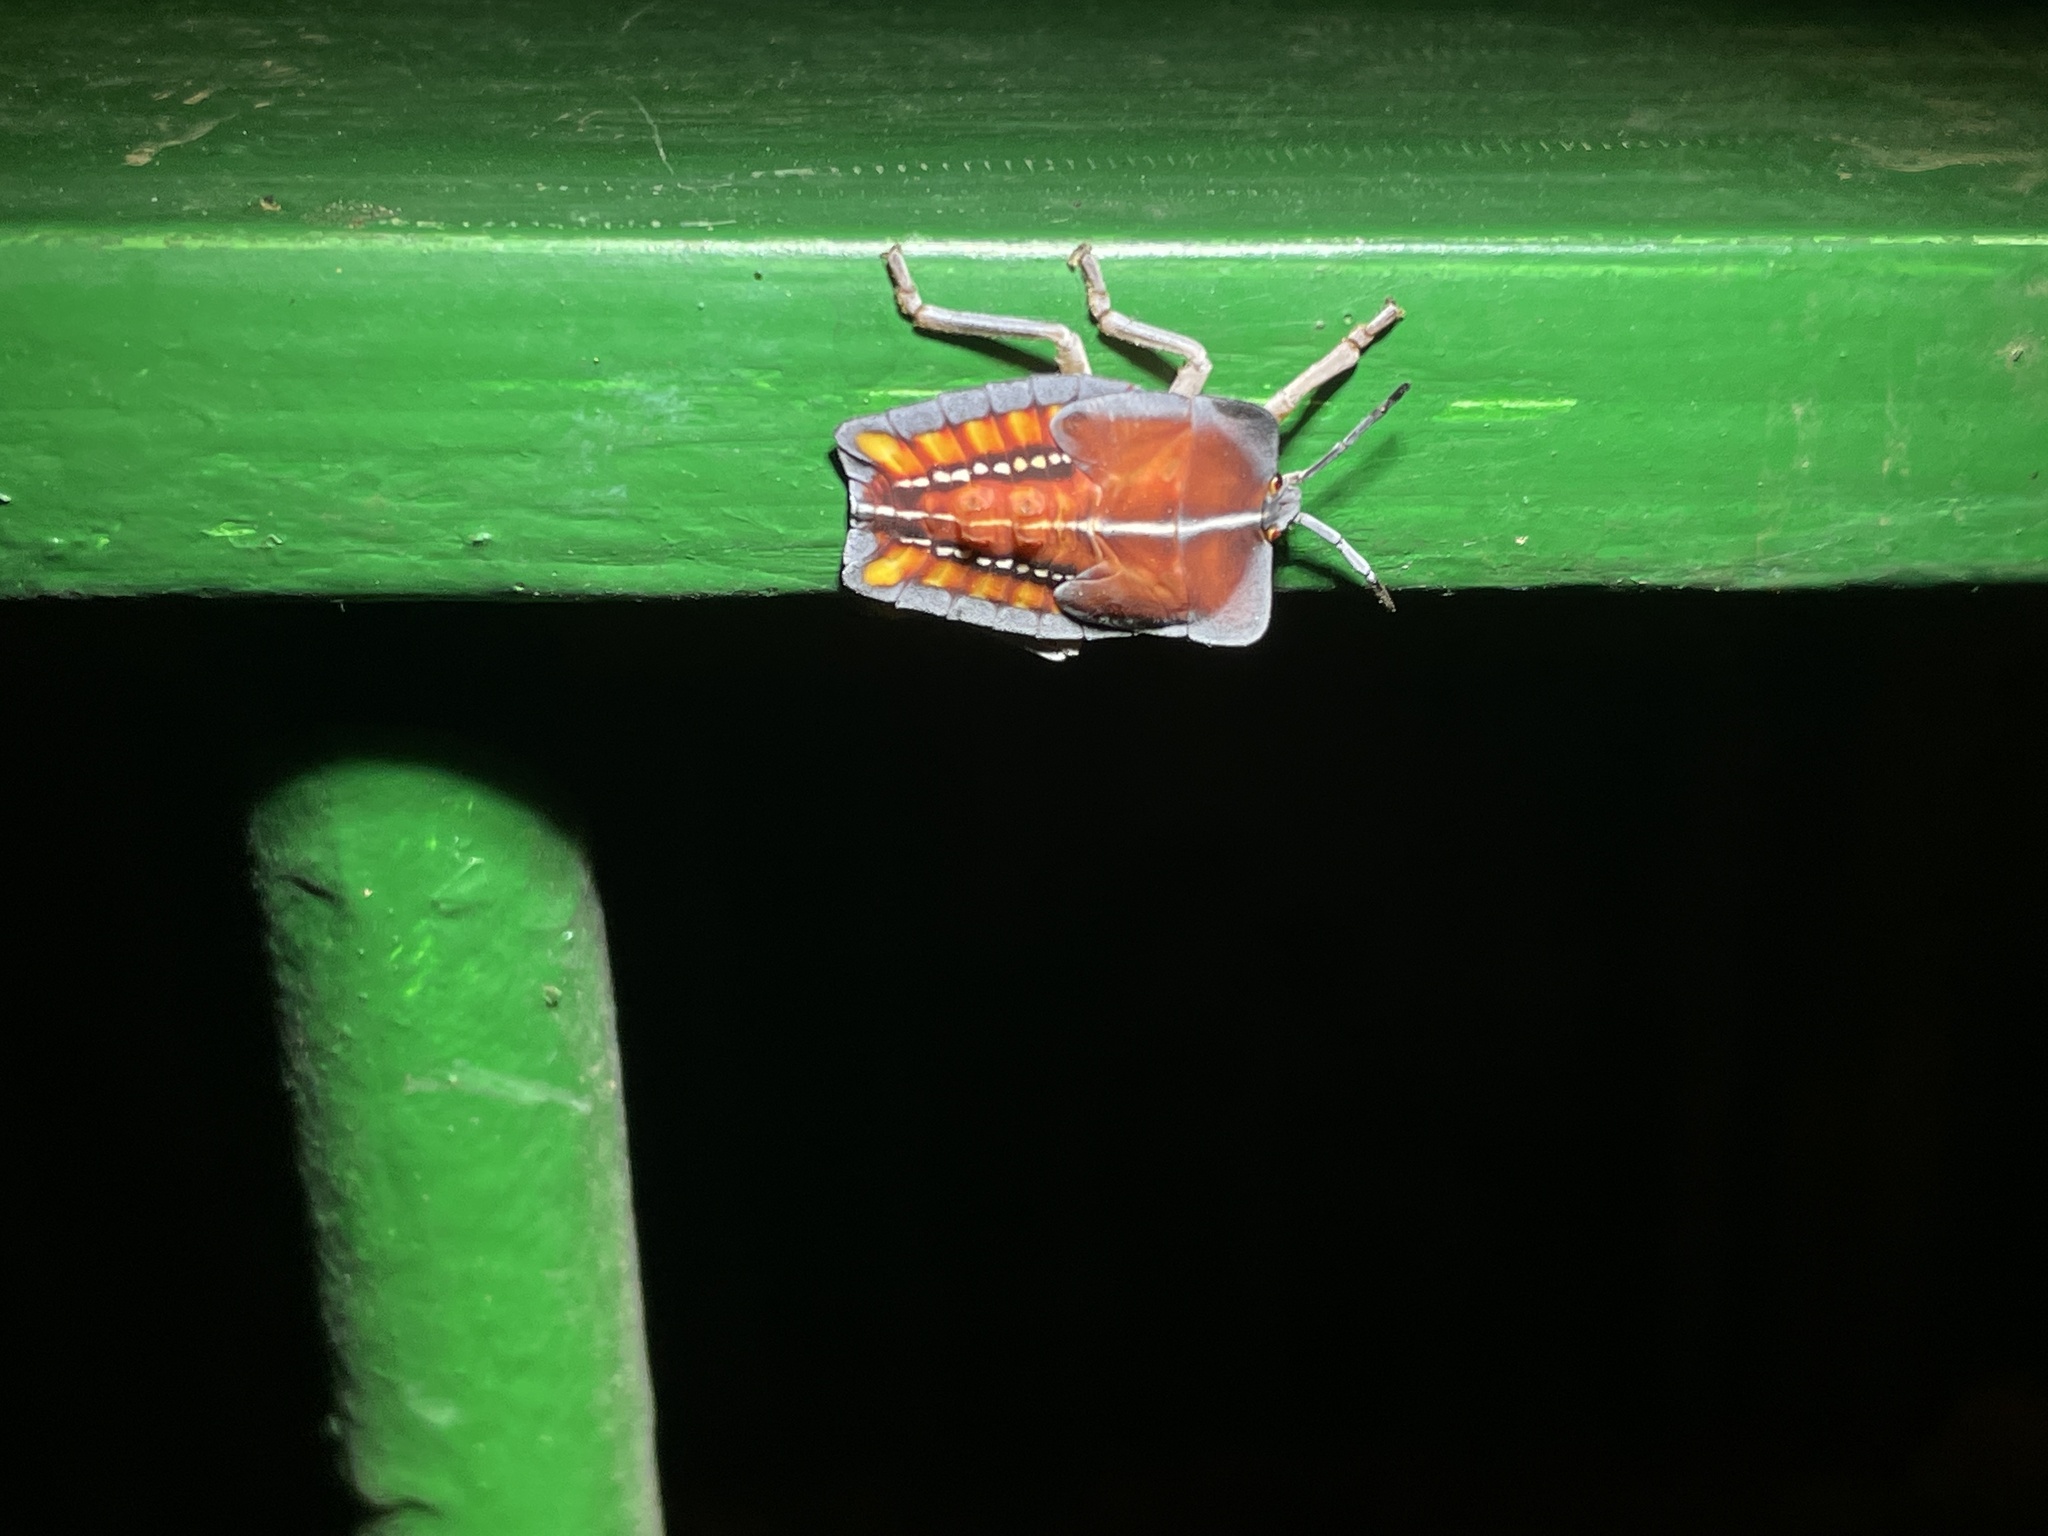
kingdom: Animalia
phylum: Arthropoda
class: Insecta
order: Hemiptera
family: Tessaratomidae
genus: Tessaratoma
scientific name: Tessaratoma papillosa
